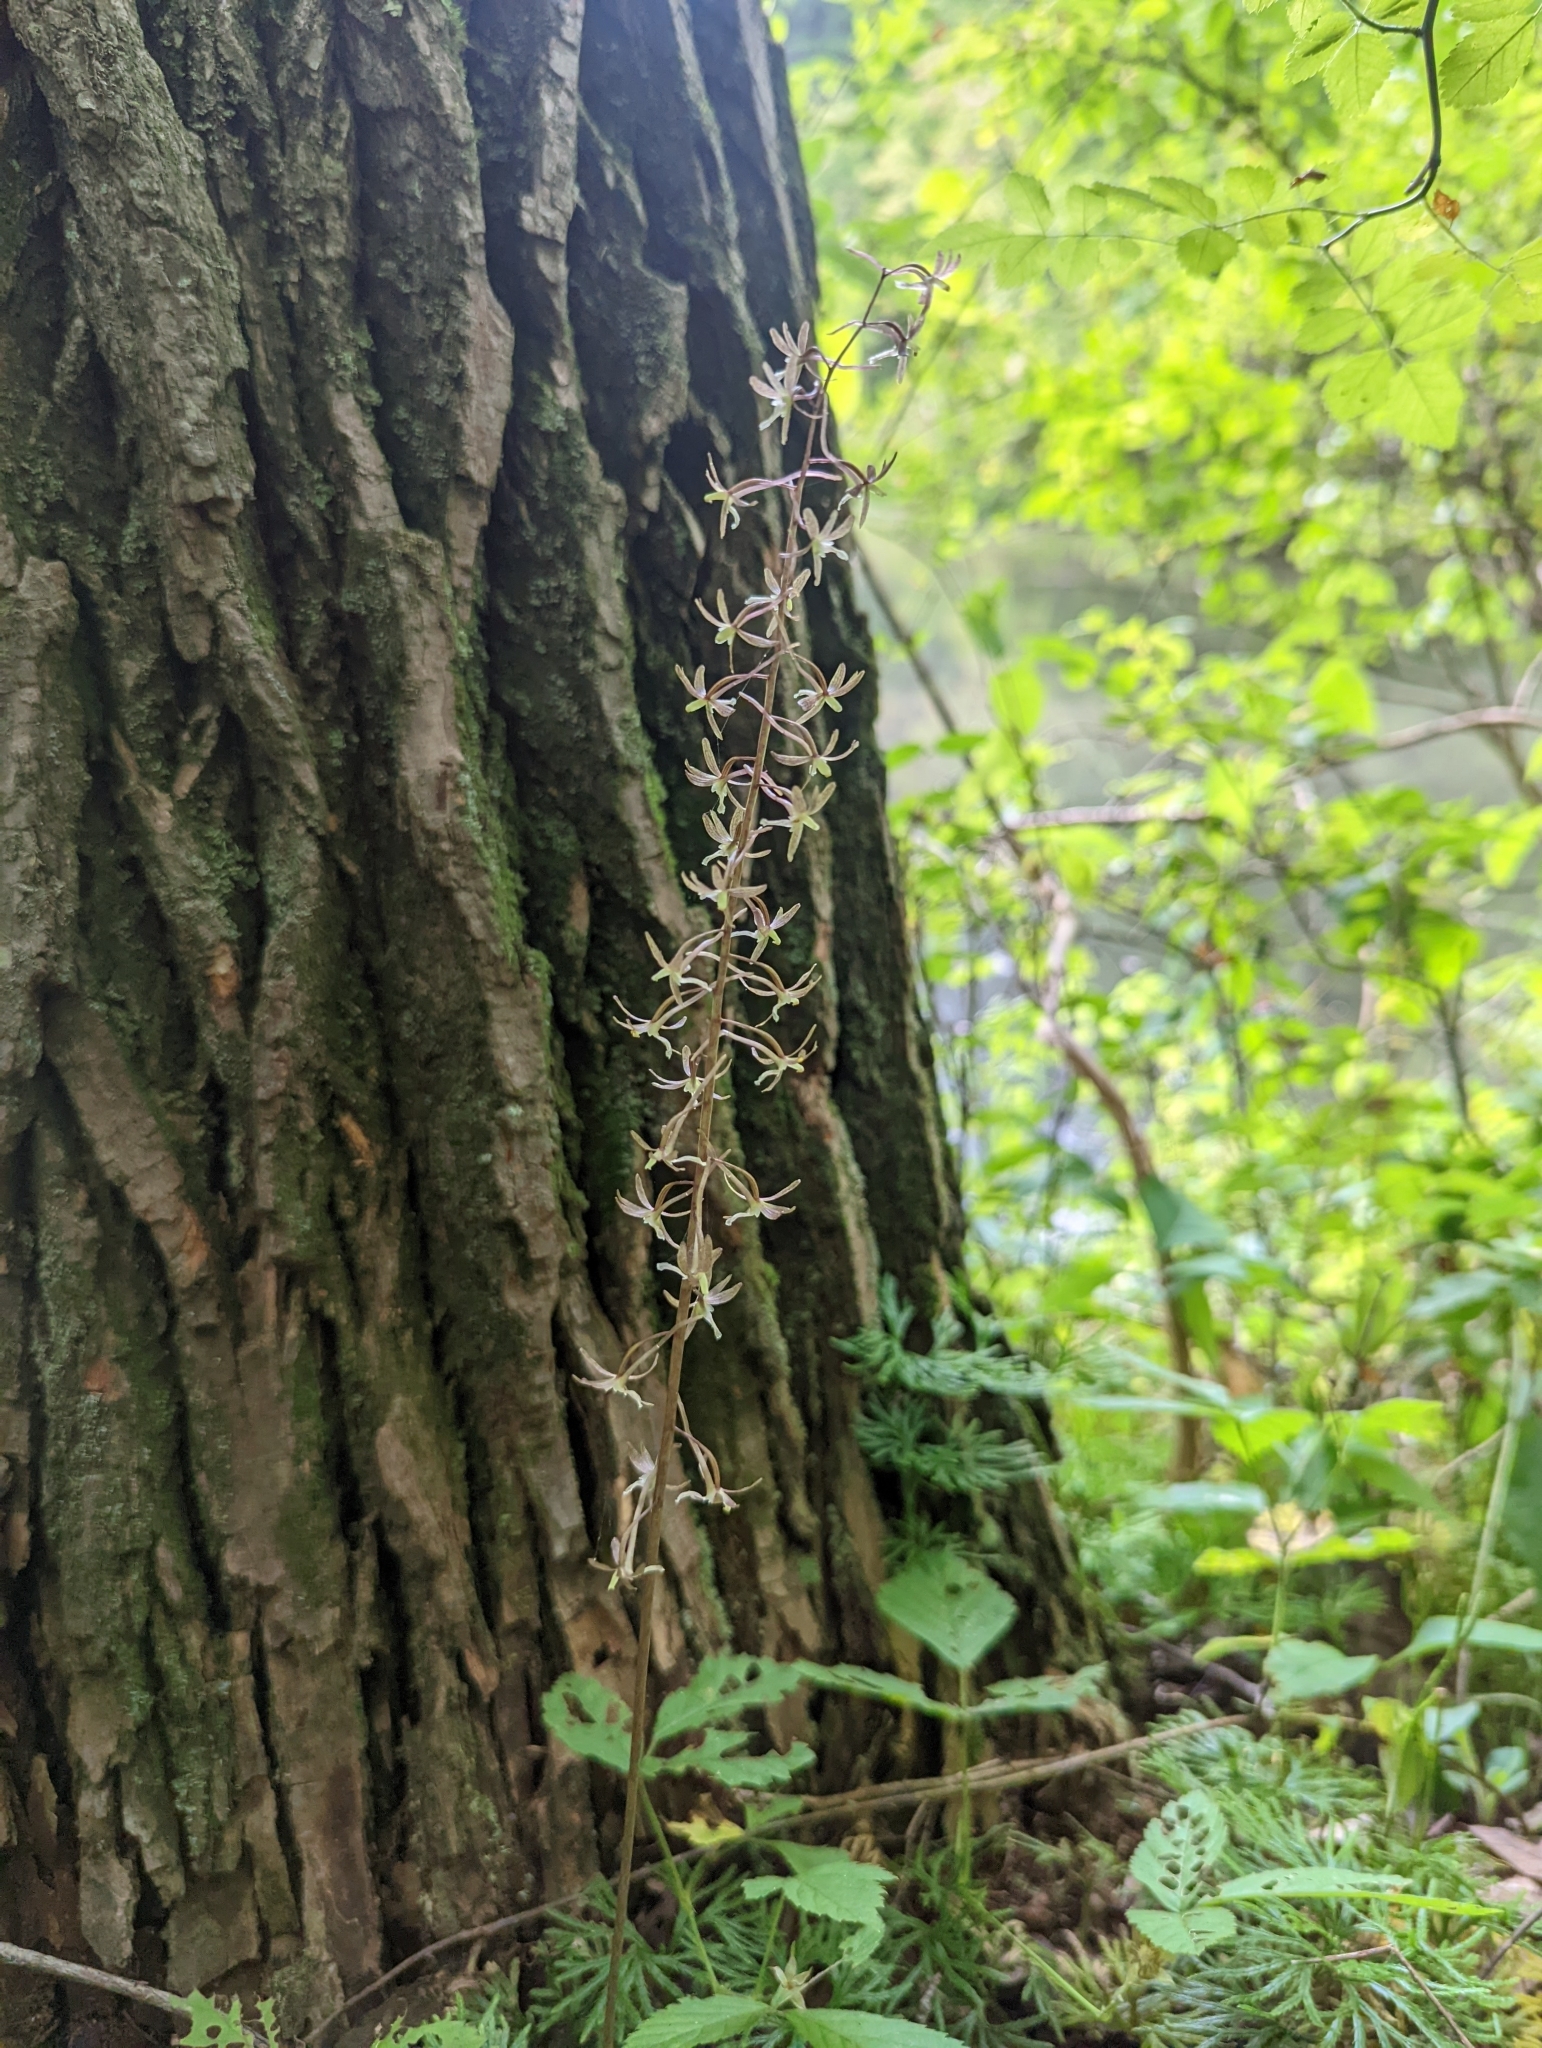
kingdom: Plantae
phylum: Tracheophyta
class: Liliopsida
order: Asparagales
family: Orchidaceae
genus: Tipularia
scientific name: Tipularia discolor
